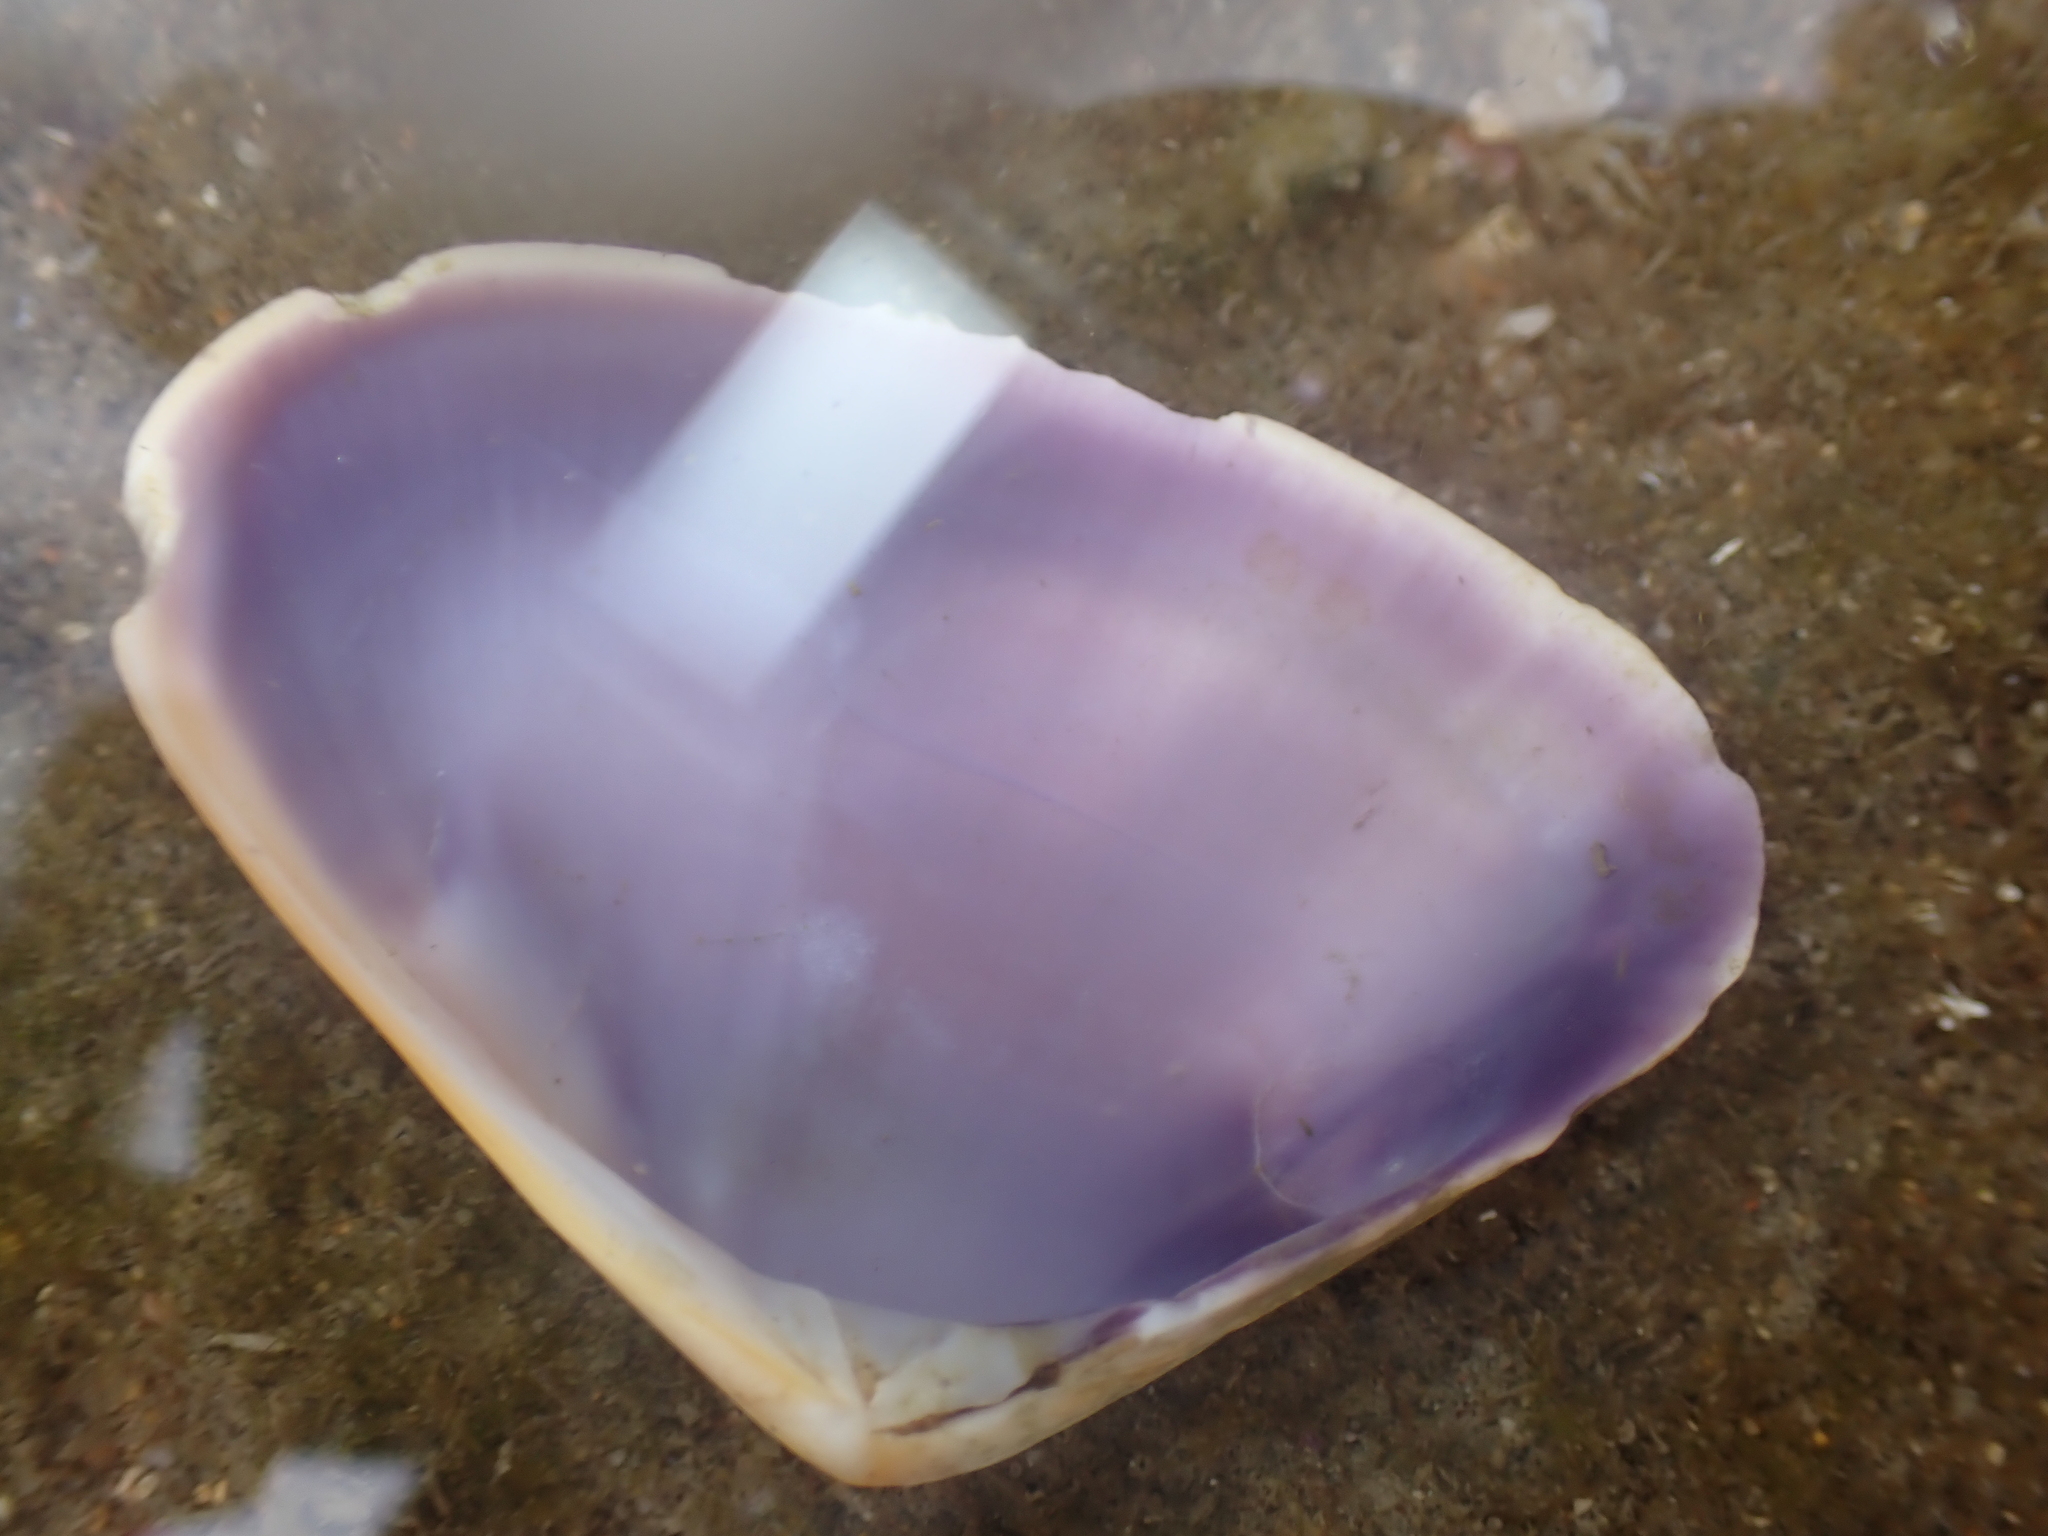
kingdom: Animalia
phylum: Mollusca
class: Bivalvia
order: Cardiida
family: Donacidae
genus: Latona
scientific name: Latona deltoides
